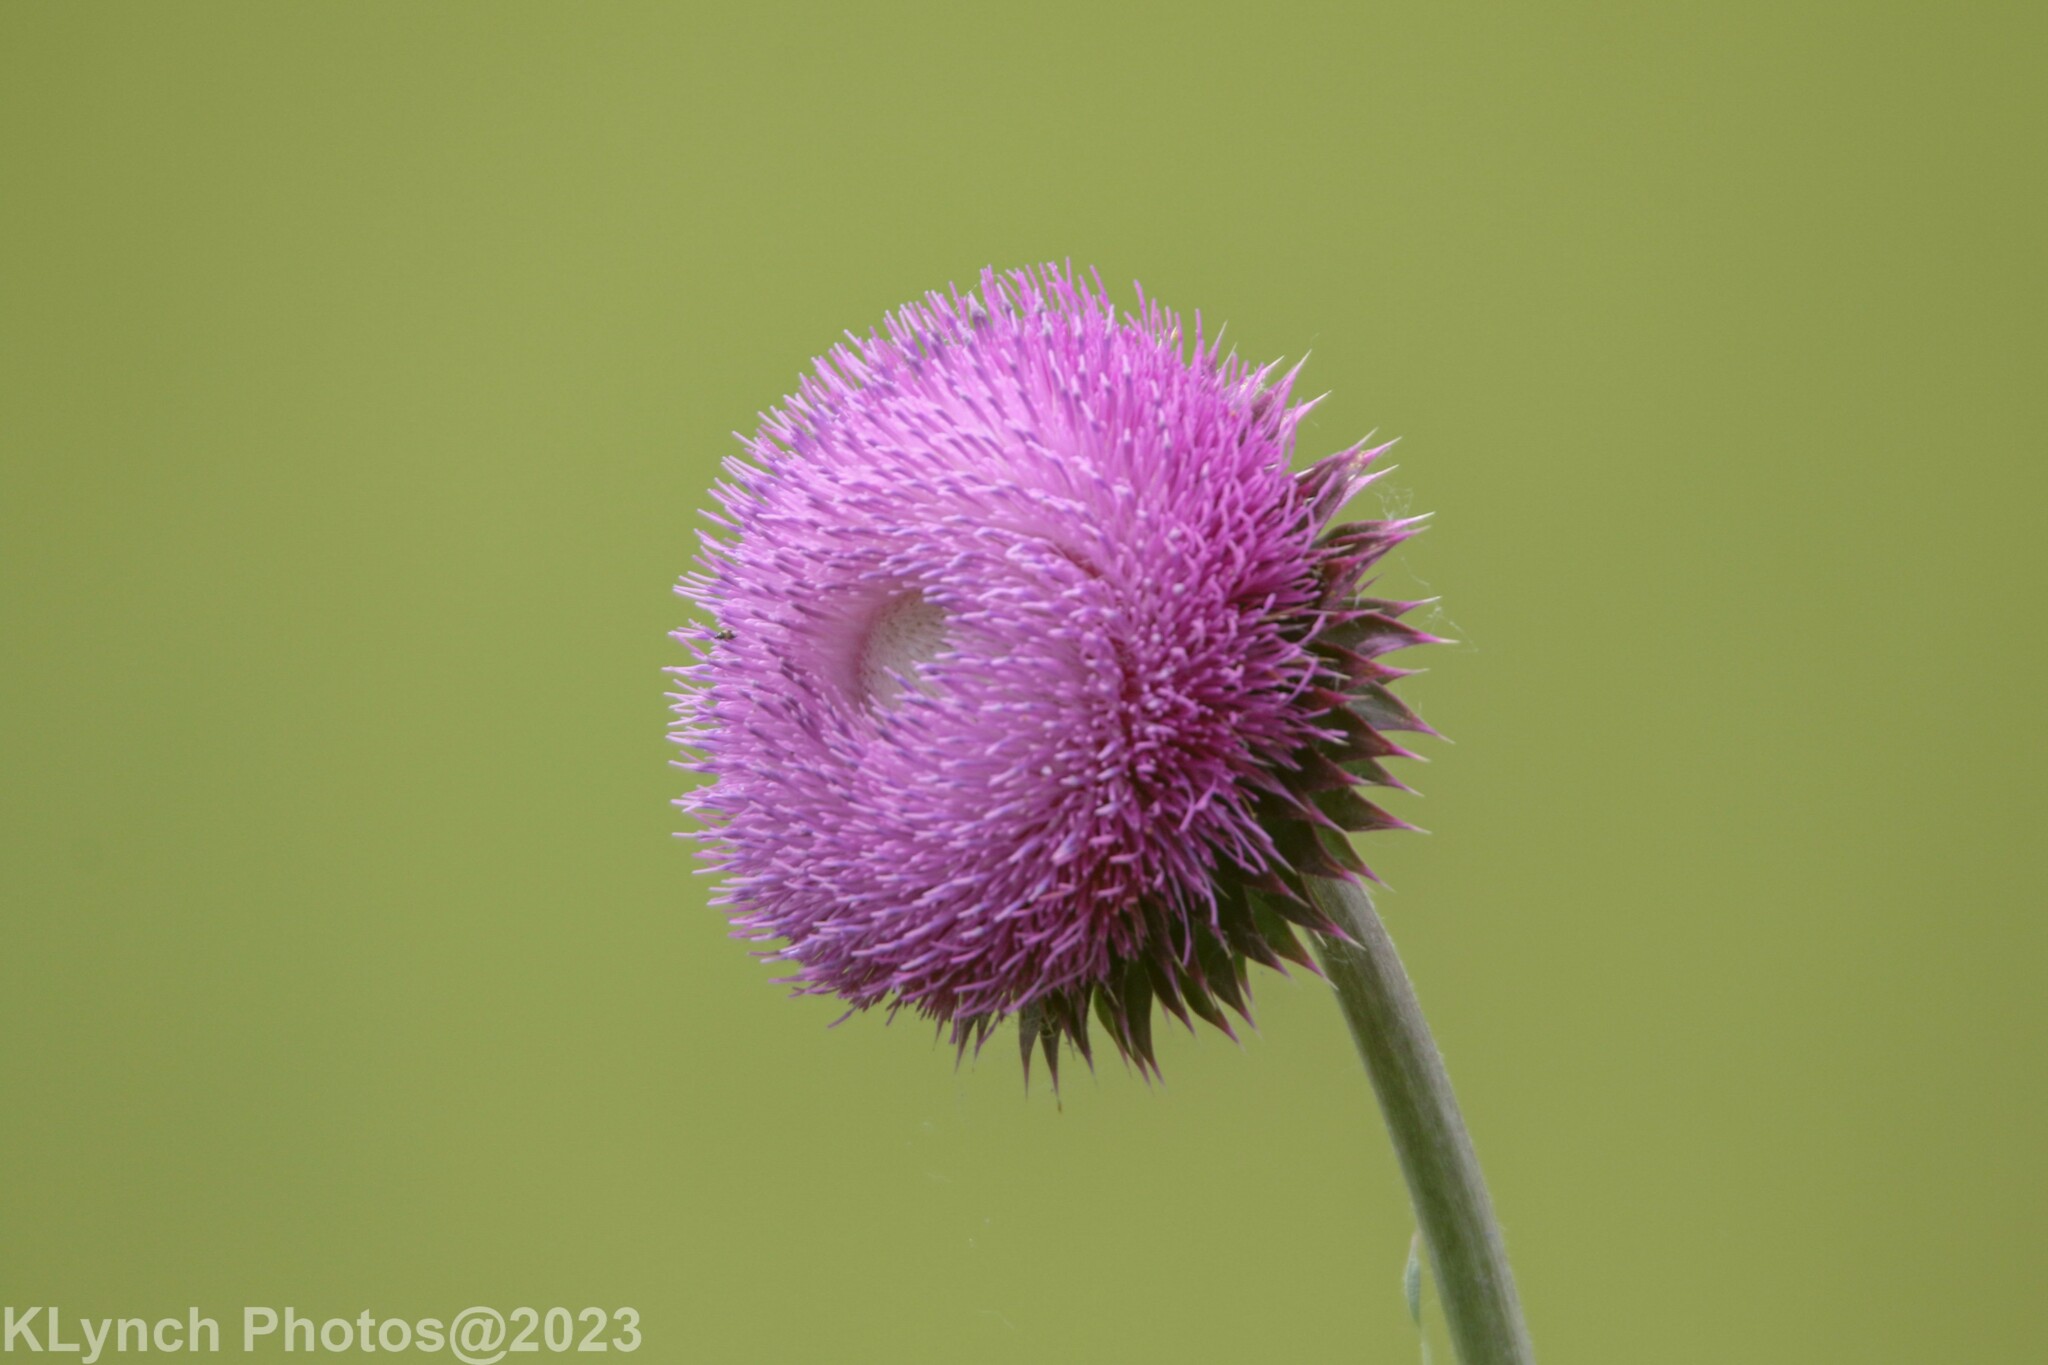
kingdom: Plantae
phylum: Tracheophyta
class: Magnoliopsida
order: Asterales
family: Asteraceae
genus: Carduus
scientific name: Carduus nutans
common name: Musk thistle
